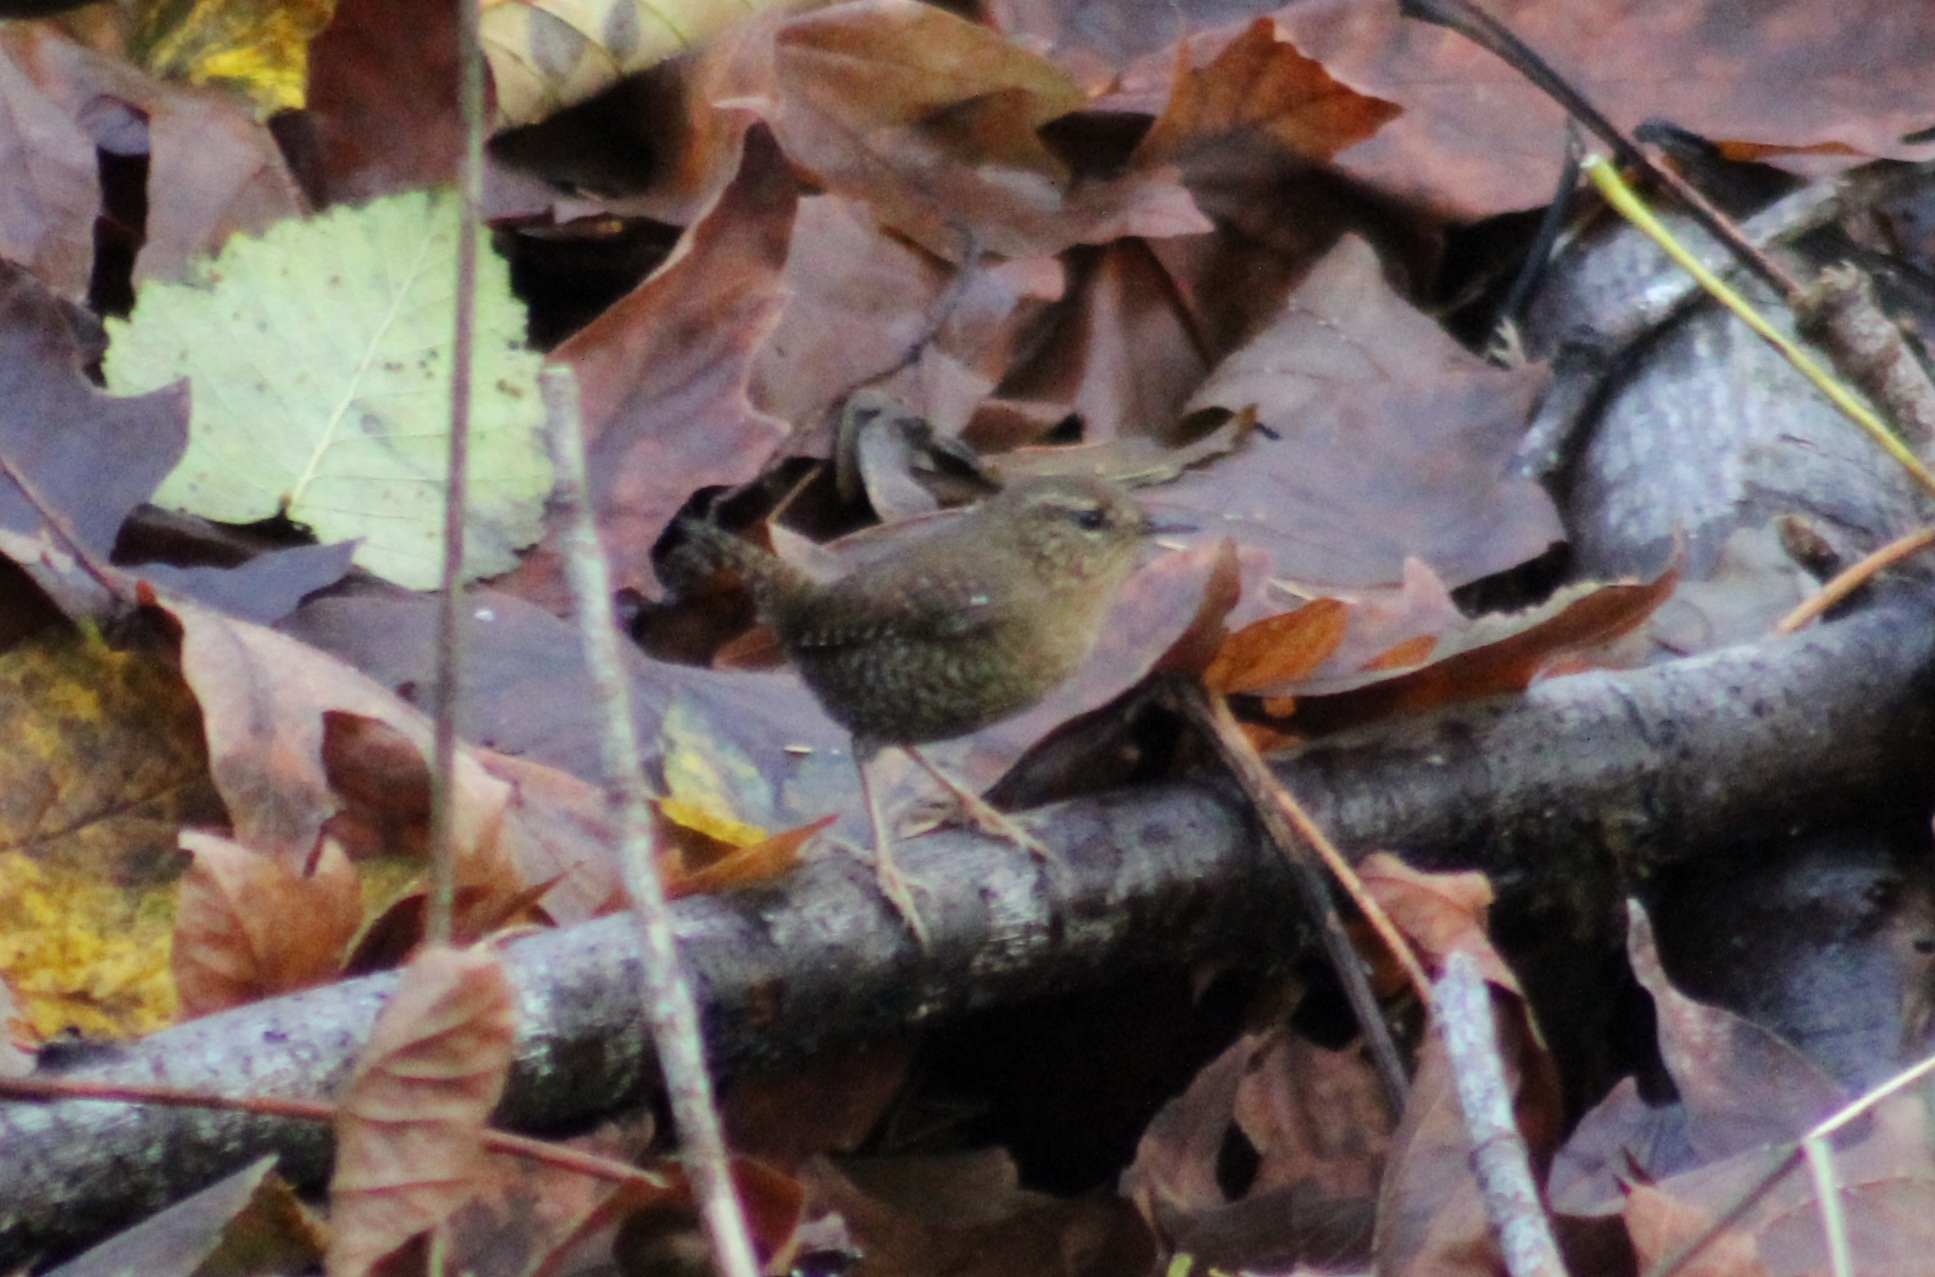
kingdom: Animalia
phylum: Chordata
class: Aves
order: Passeriformes
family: Troglodytidae
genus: Troglodytes
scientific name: Troglodytes pacificus
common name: Pacific wren
